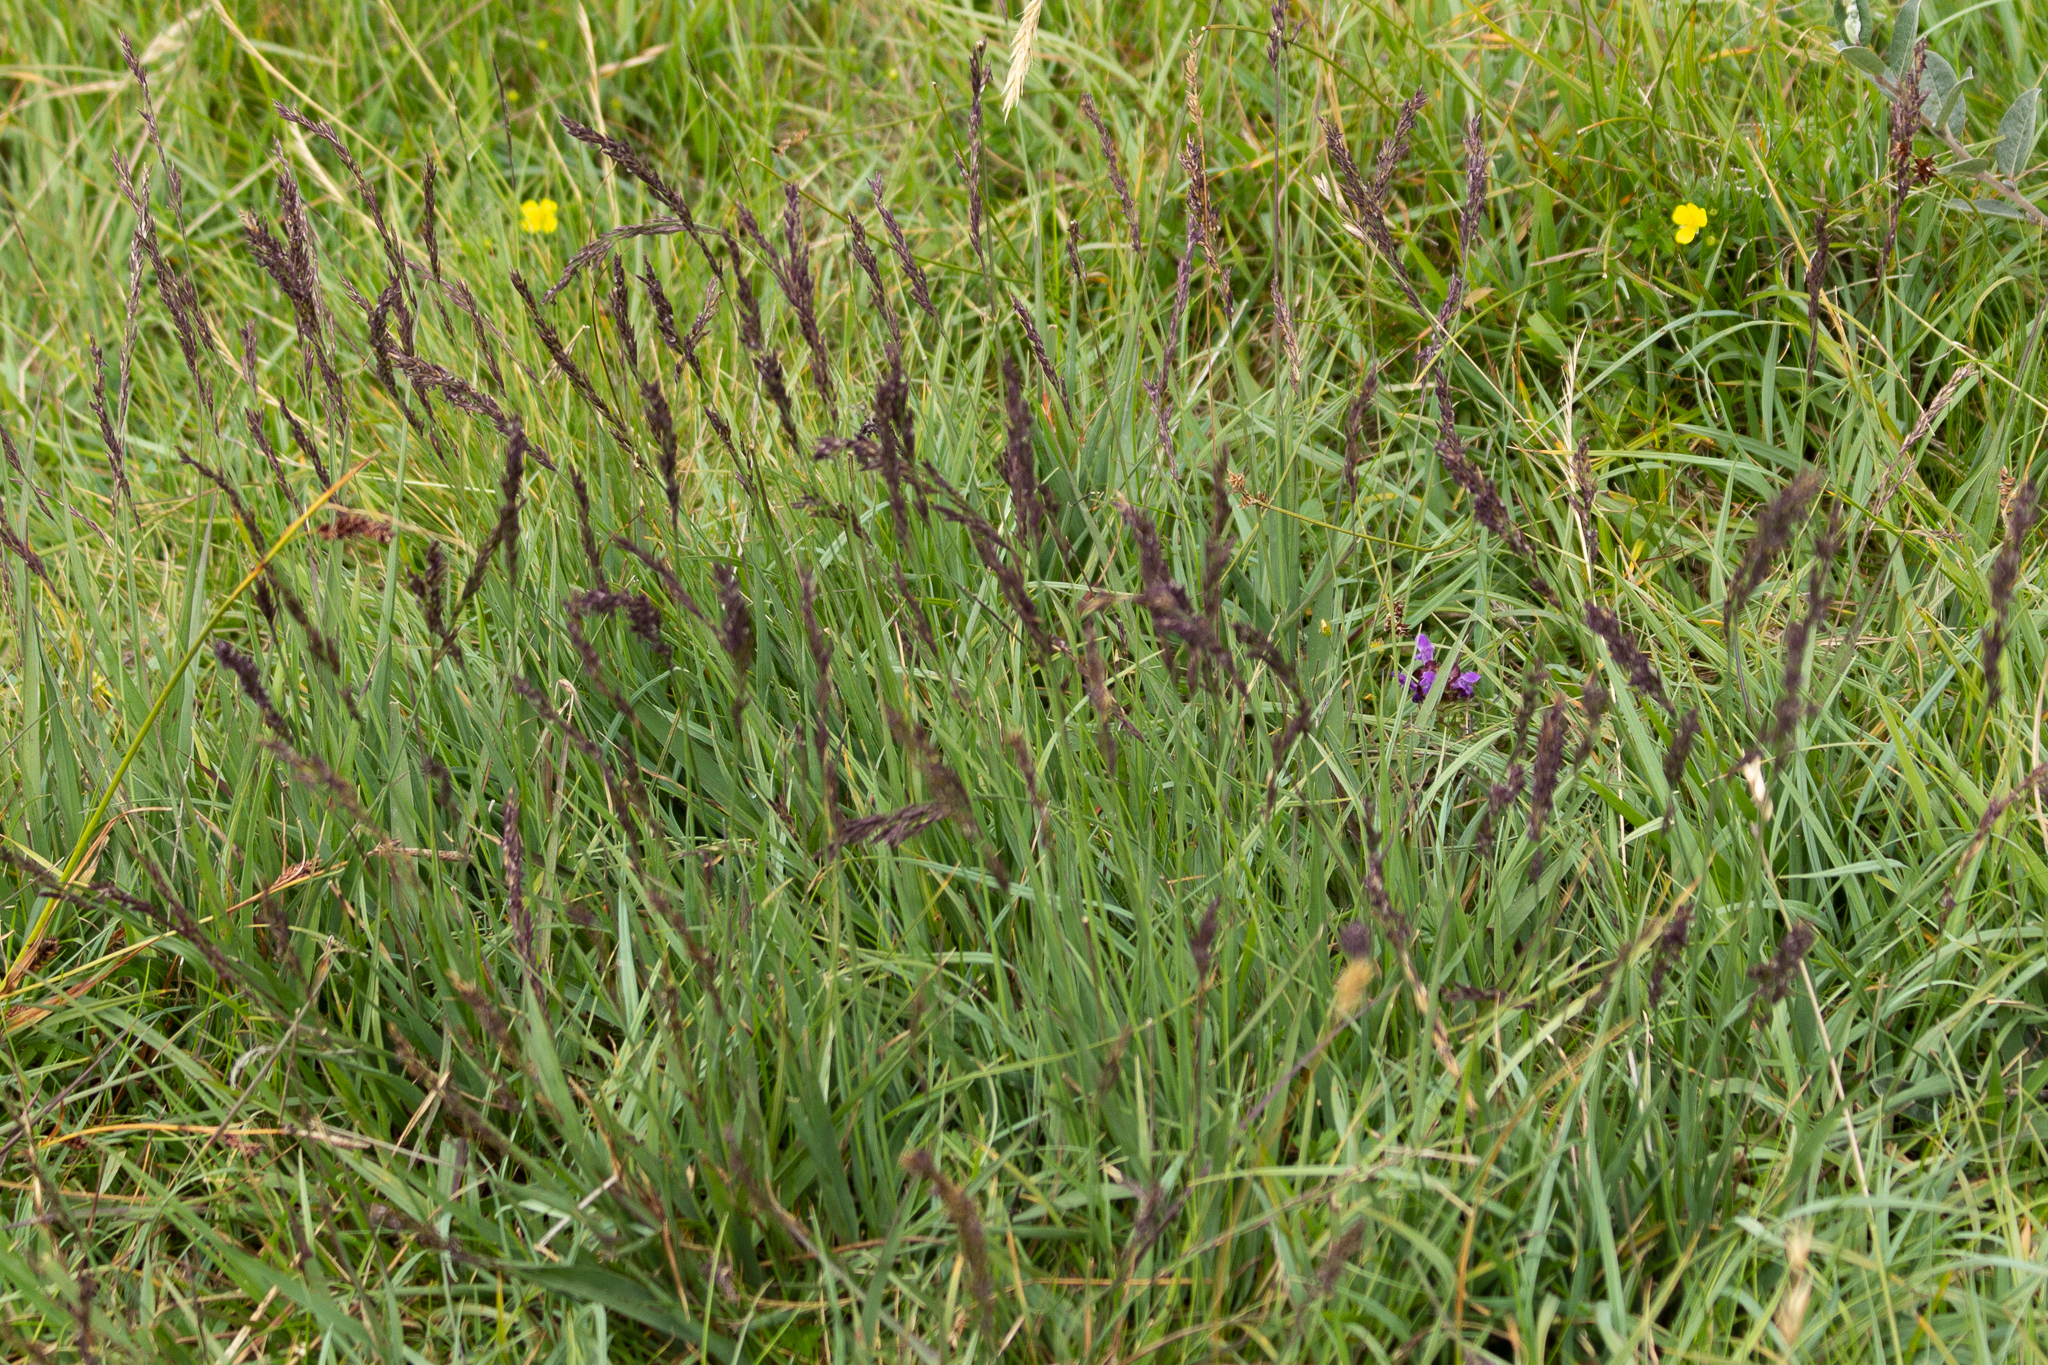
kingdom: Plantae
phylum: Tracheophyta
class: Liliopsida
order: Poales
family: Poaceae
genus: Molinia
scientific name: Molinia caerulea
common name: Purple moor-grass
